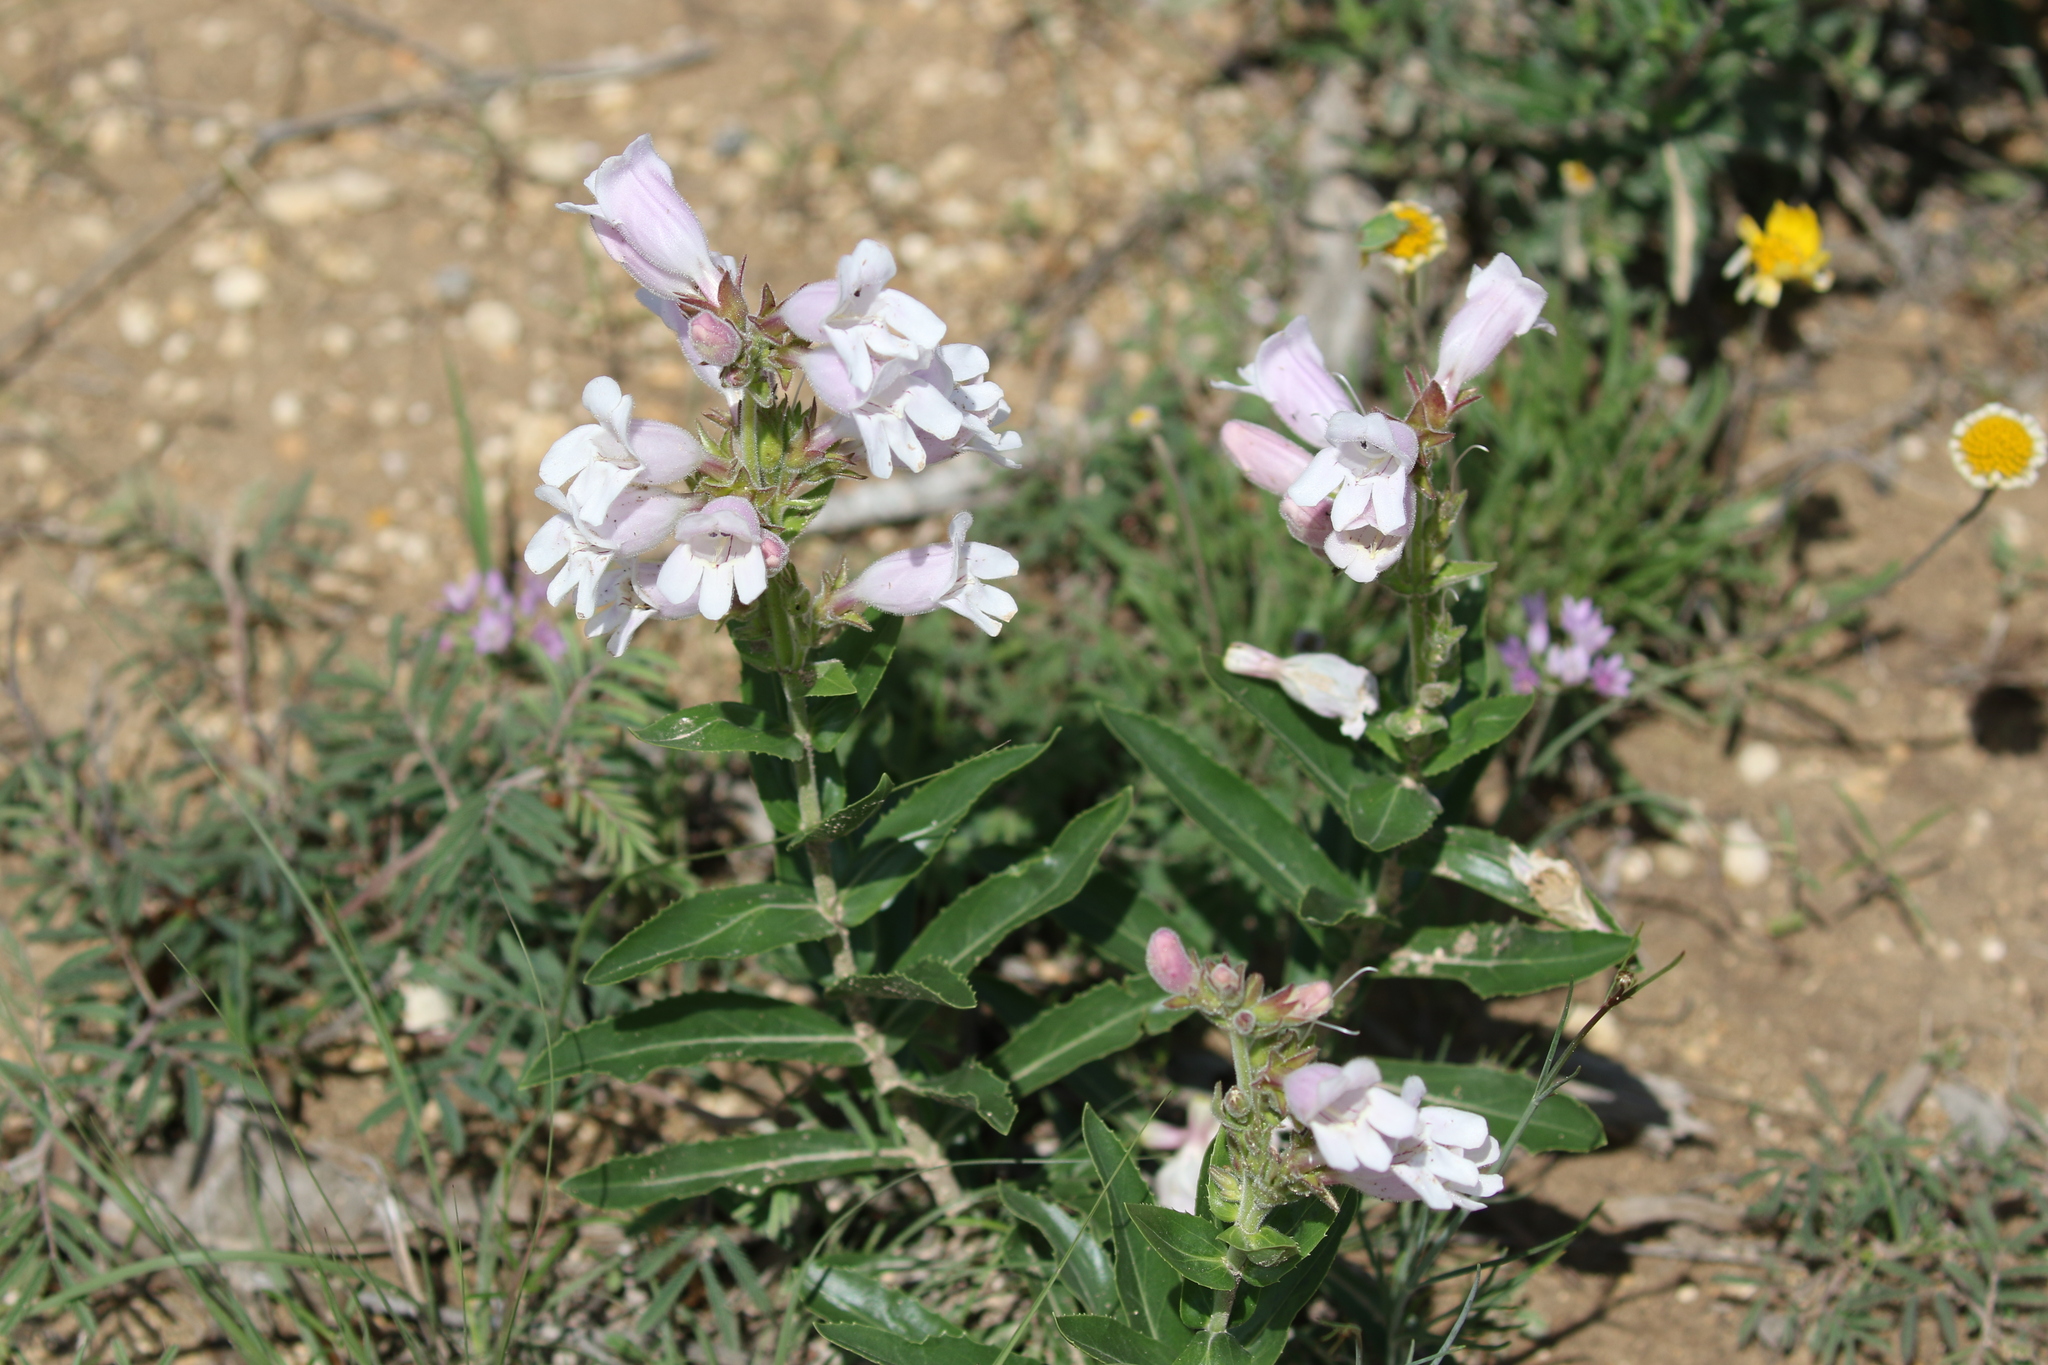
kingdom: Plantae
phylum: Tracheophyta
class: Magnoliopsida
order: Lamiales
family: Plantaginaceae
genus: Penstemon
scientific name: Penstemon cobaea
